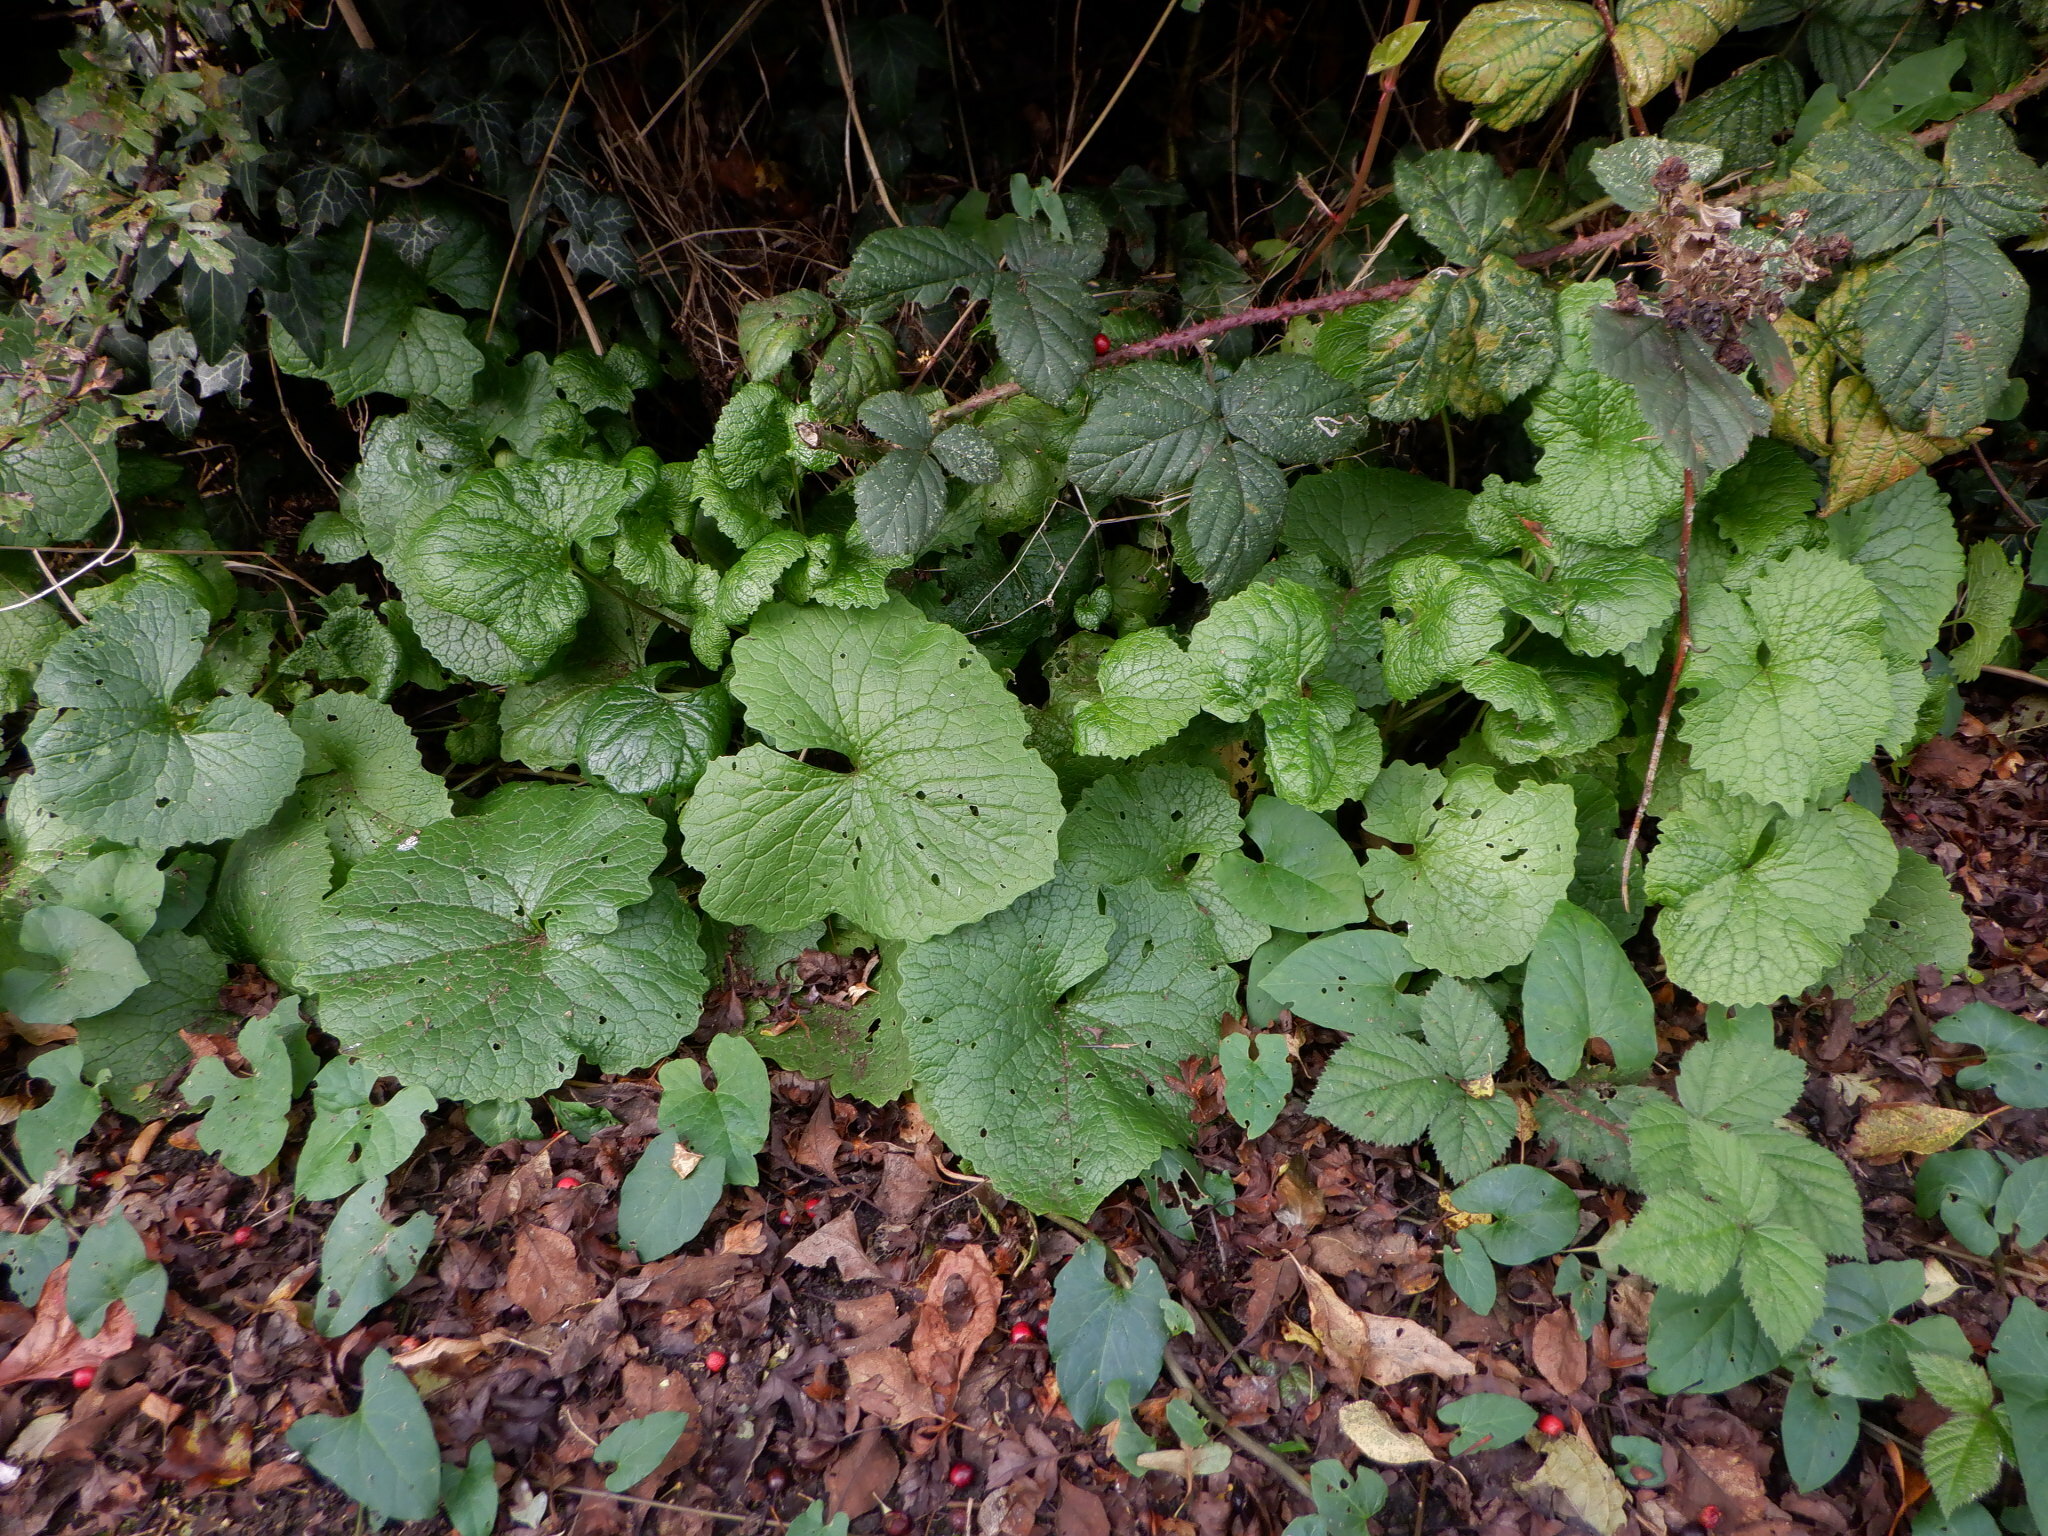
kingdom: Plantae
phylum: Tracheophyta
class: Magnoliopsida
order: Brassicales
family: Brassicaceae
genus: Alliaria
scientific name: Alliaria petiolata
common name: Garlic mustard
